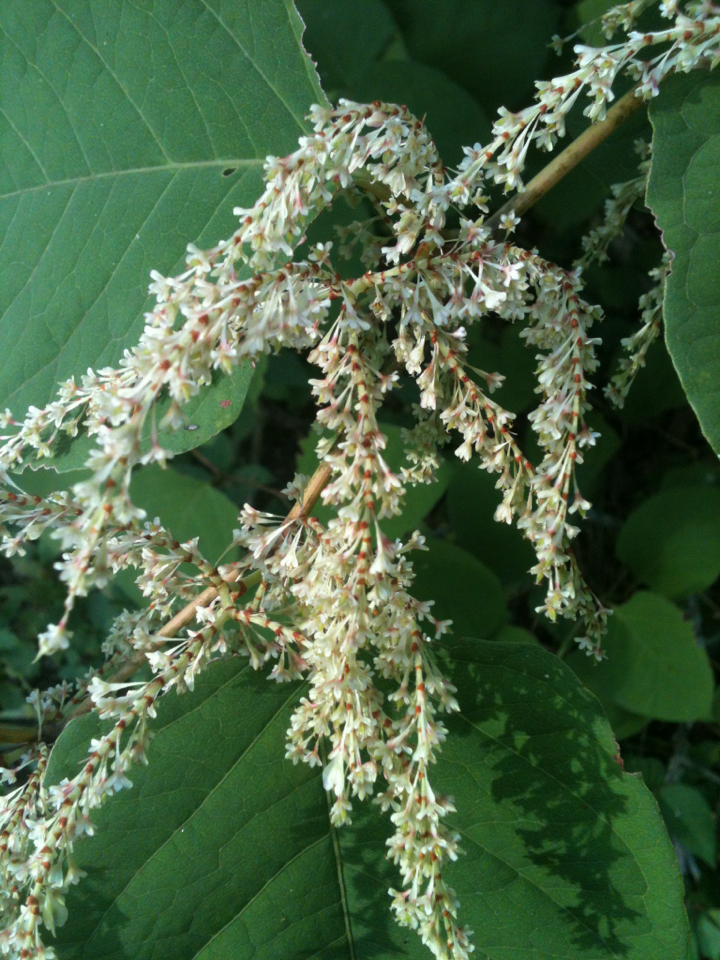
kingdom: Plantae
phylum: Tracheophyta
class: Magnoliopsida
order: Caryophyllales
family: Polygonaceae
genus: Reynoutria
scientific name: Reynoutria japonica
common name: Japanese knotweed
